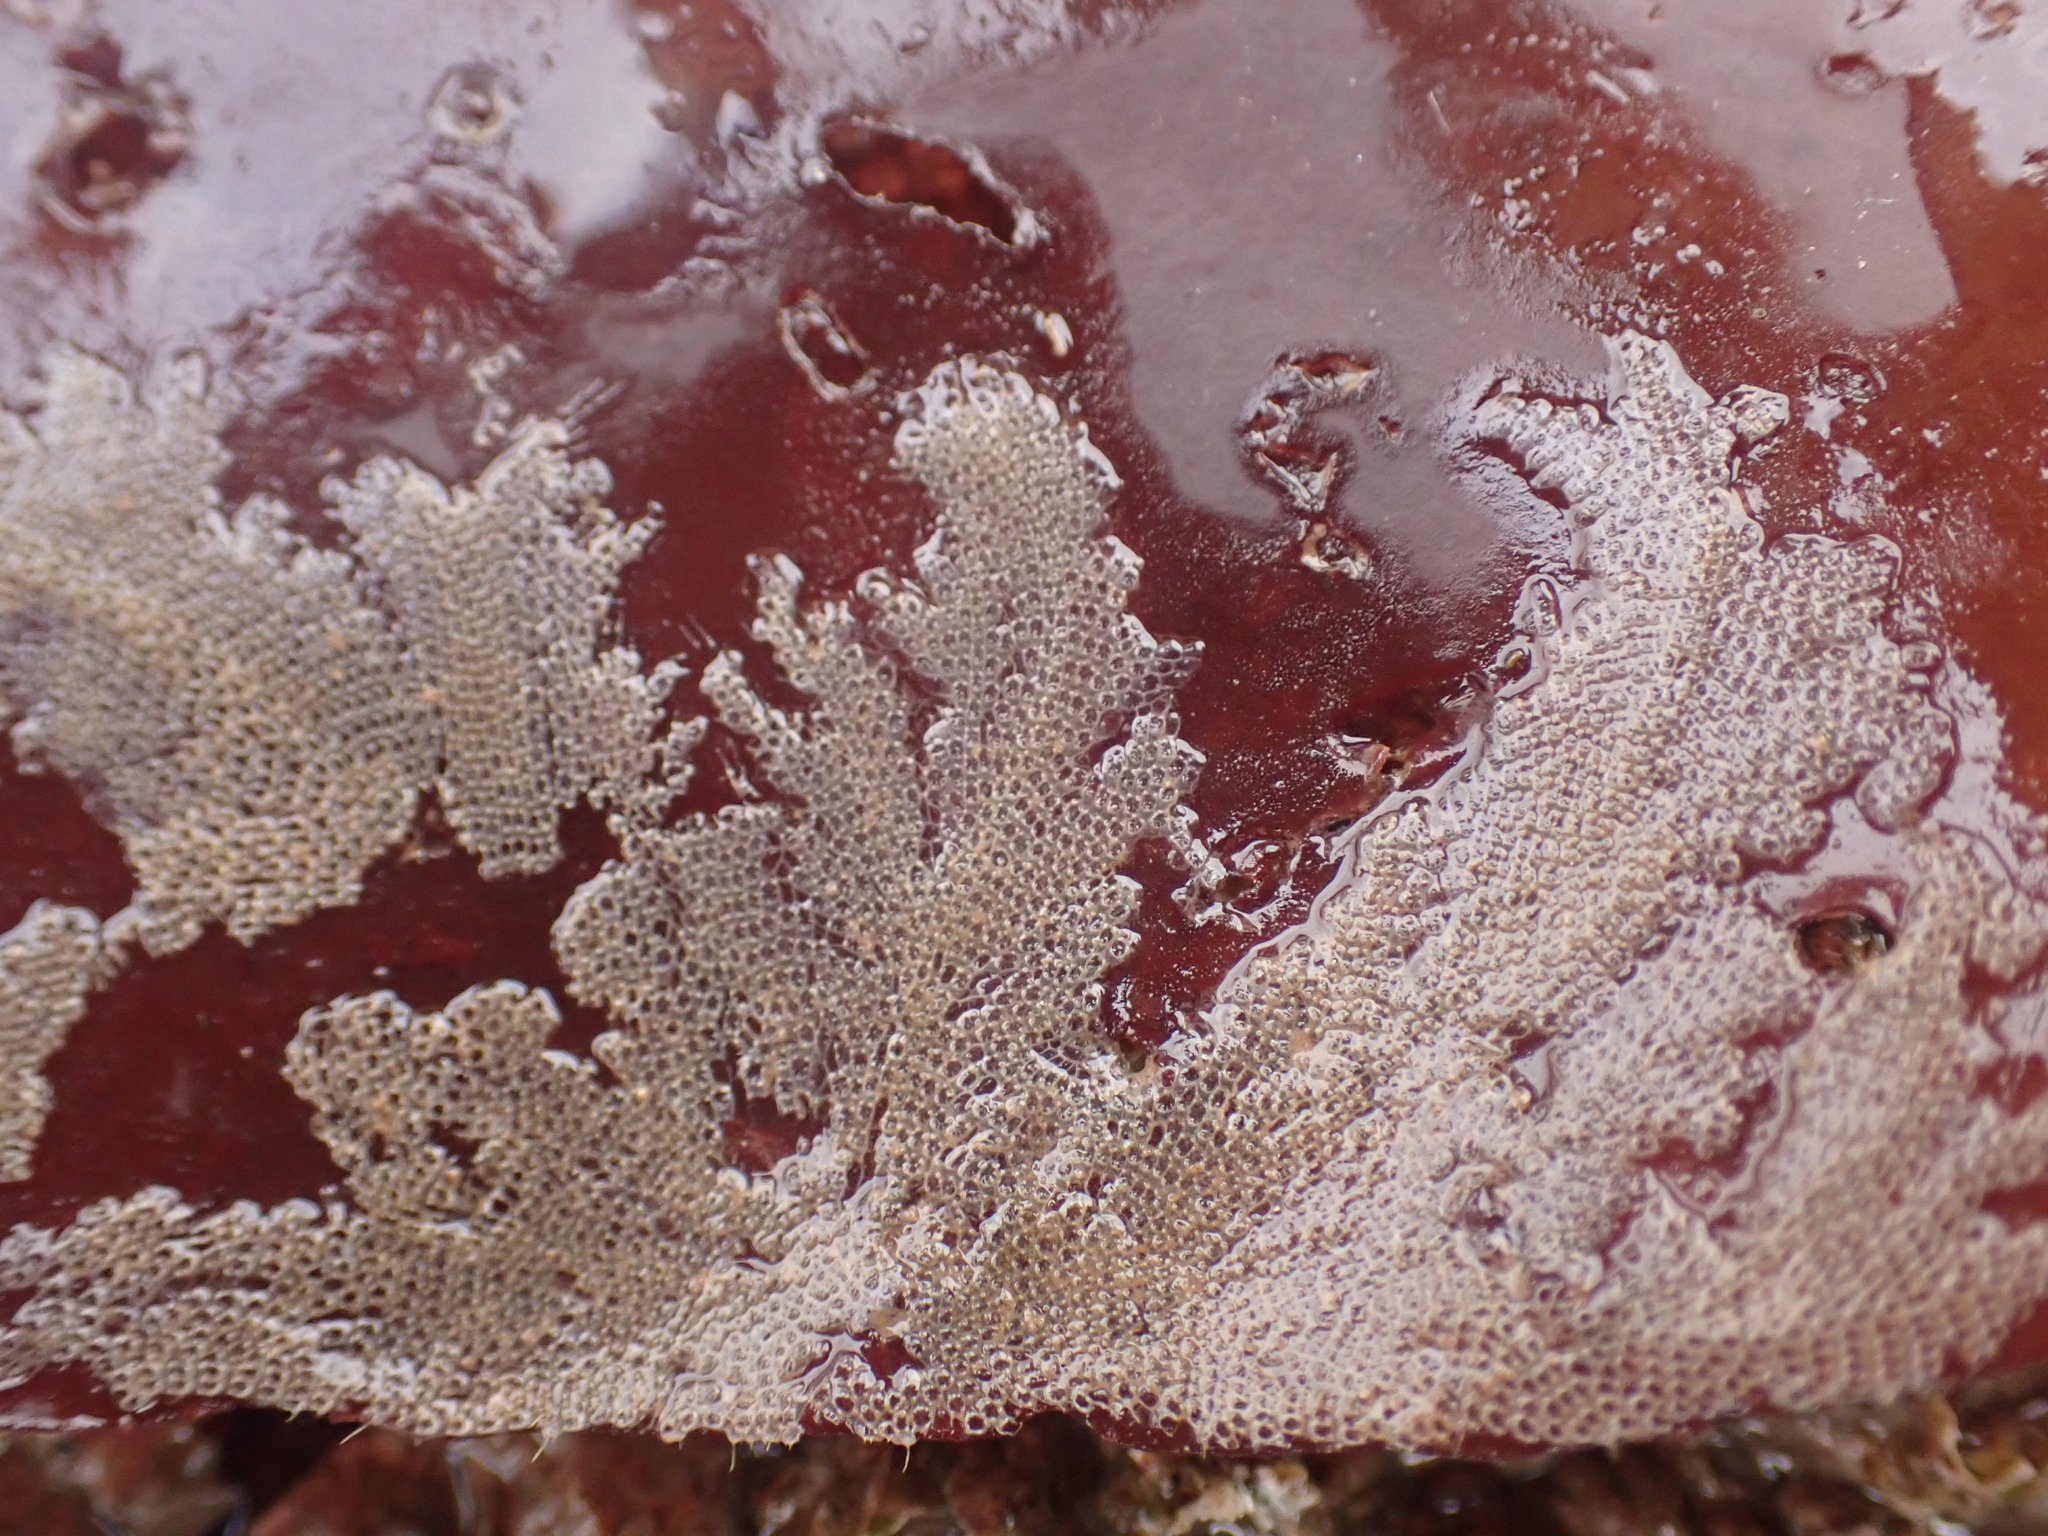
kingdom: Animalia
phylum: Bryozoa
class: Gymnolaemata
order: Cheilostomatida
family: Electridae
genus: Electra
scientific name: Electra pilosa
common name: Hairy sea-mat
